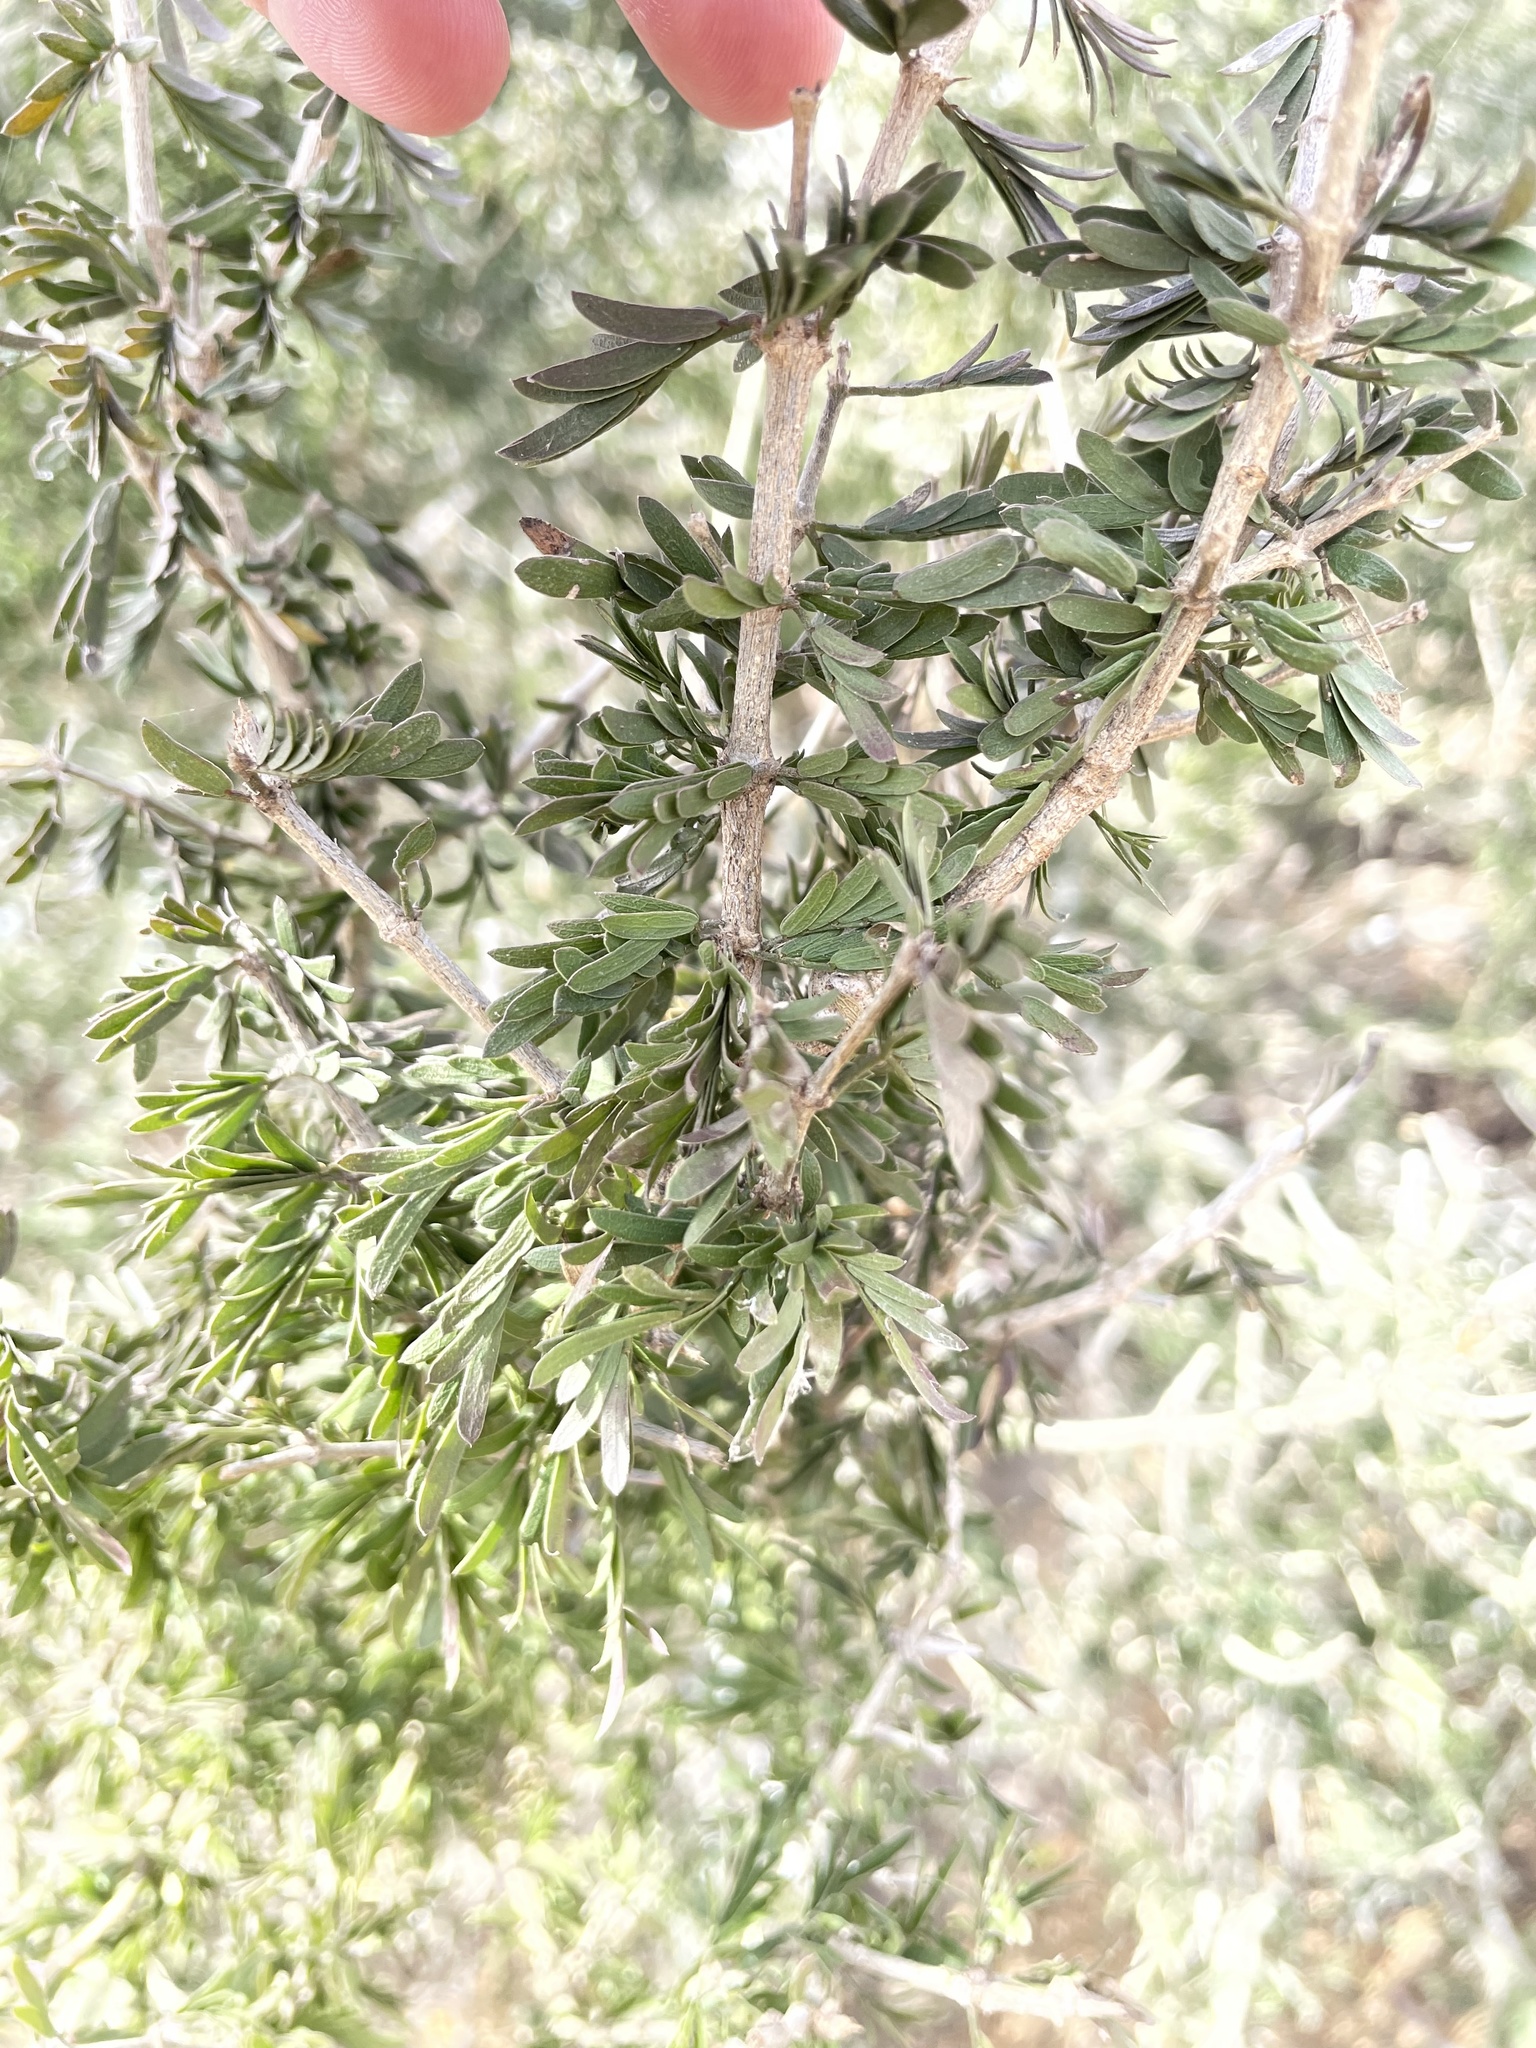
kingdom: Plantae
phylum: Tracheophyta
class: Magnoliopsida
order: Zygophyllales
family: Zygophyllaceae
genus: Porlieria
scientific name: Porlieria angustifolia
